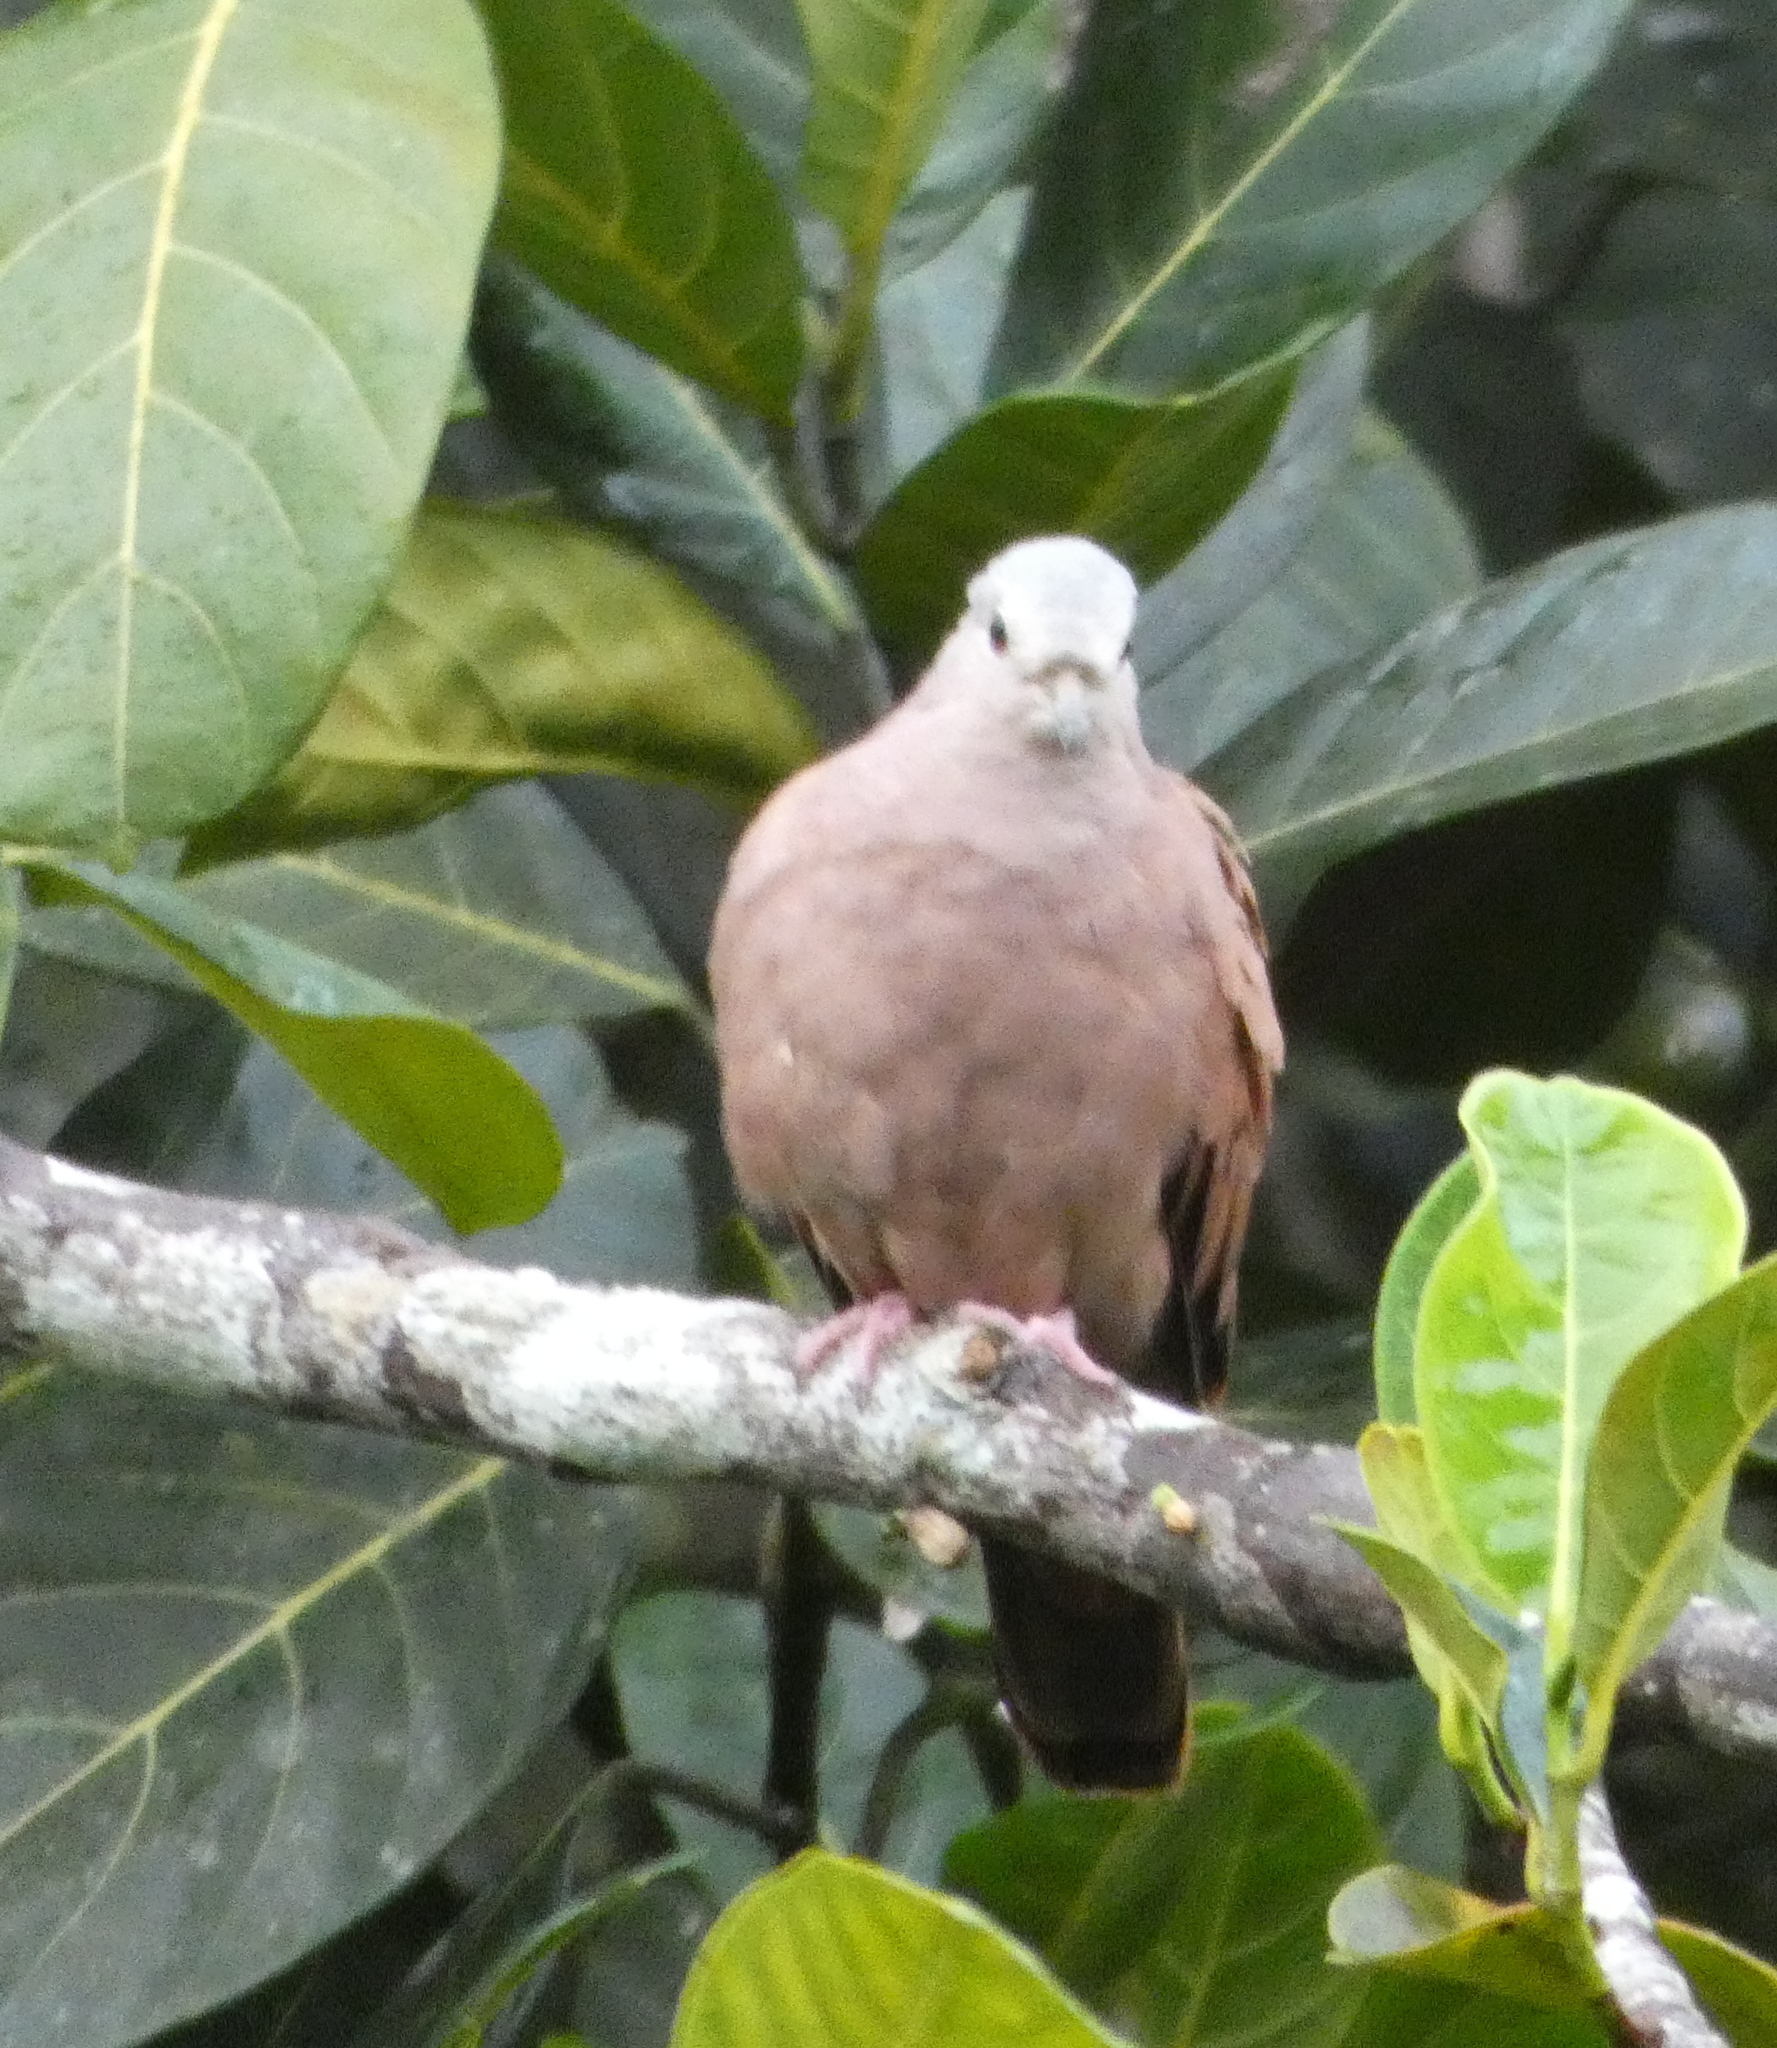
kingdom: Animalia
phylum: Chordata
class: Aves
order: Columbiformes
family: Columbidae
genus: Columbina
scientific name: Columbina talpacoti
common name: Ruddy ground dove
